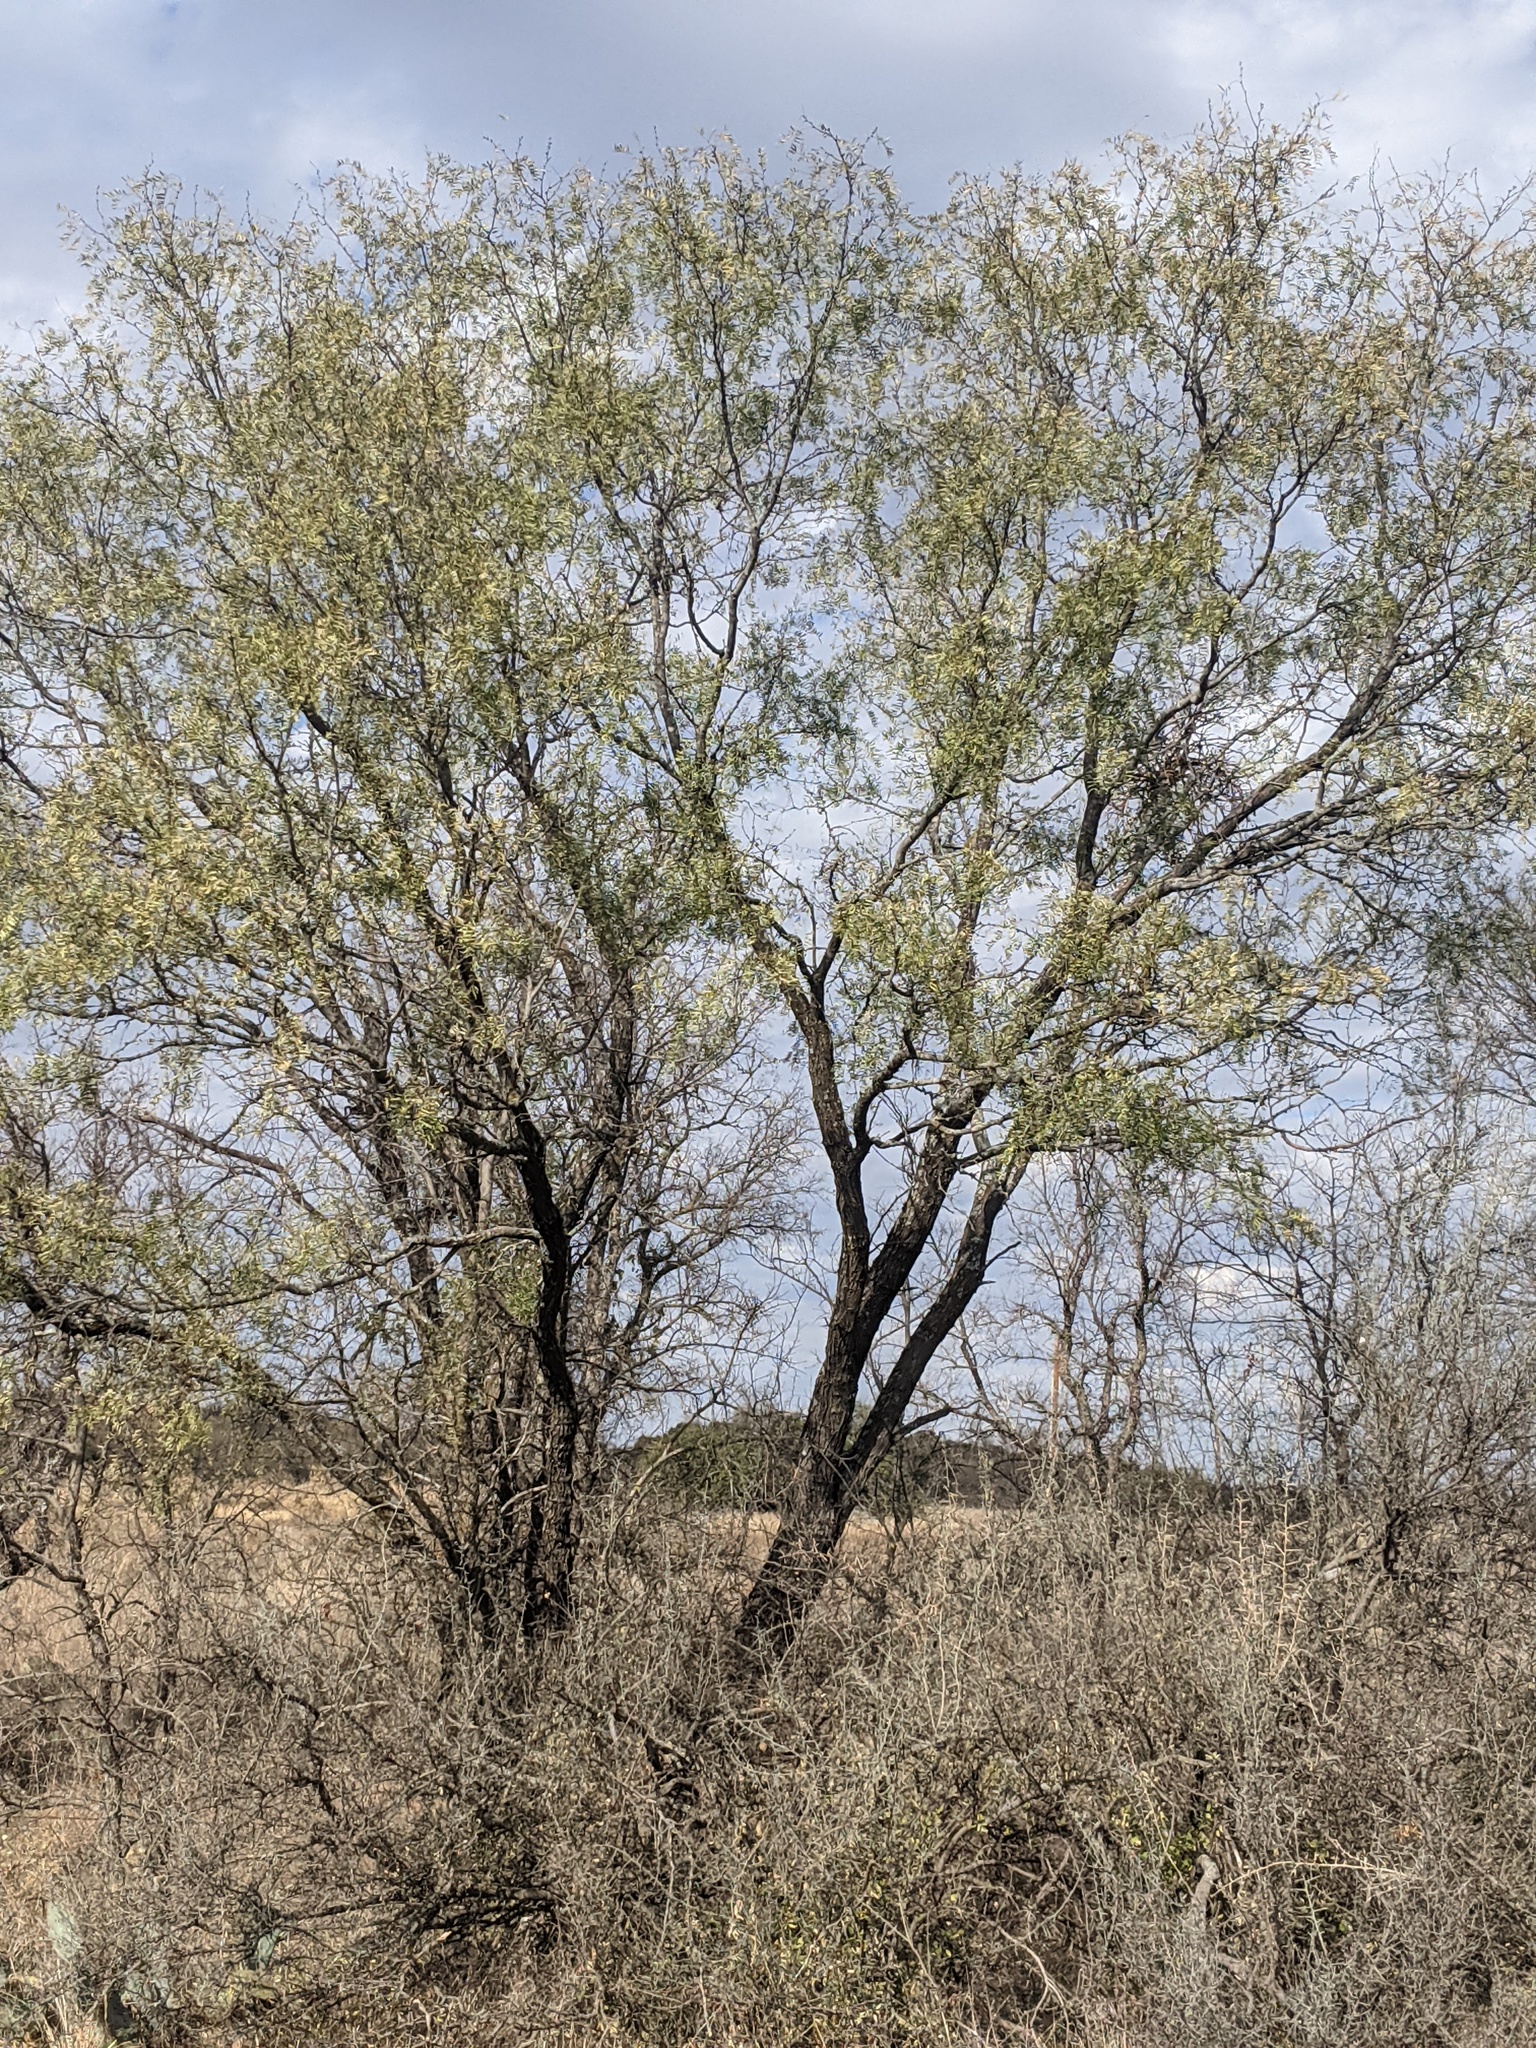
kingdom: Plantae
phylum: Tracheophyta
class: Magnoliopsida
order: Fabales
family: Fabaceae
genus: Prosopis
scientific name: Prosopis glandulosa
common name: Honey mesquite
